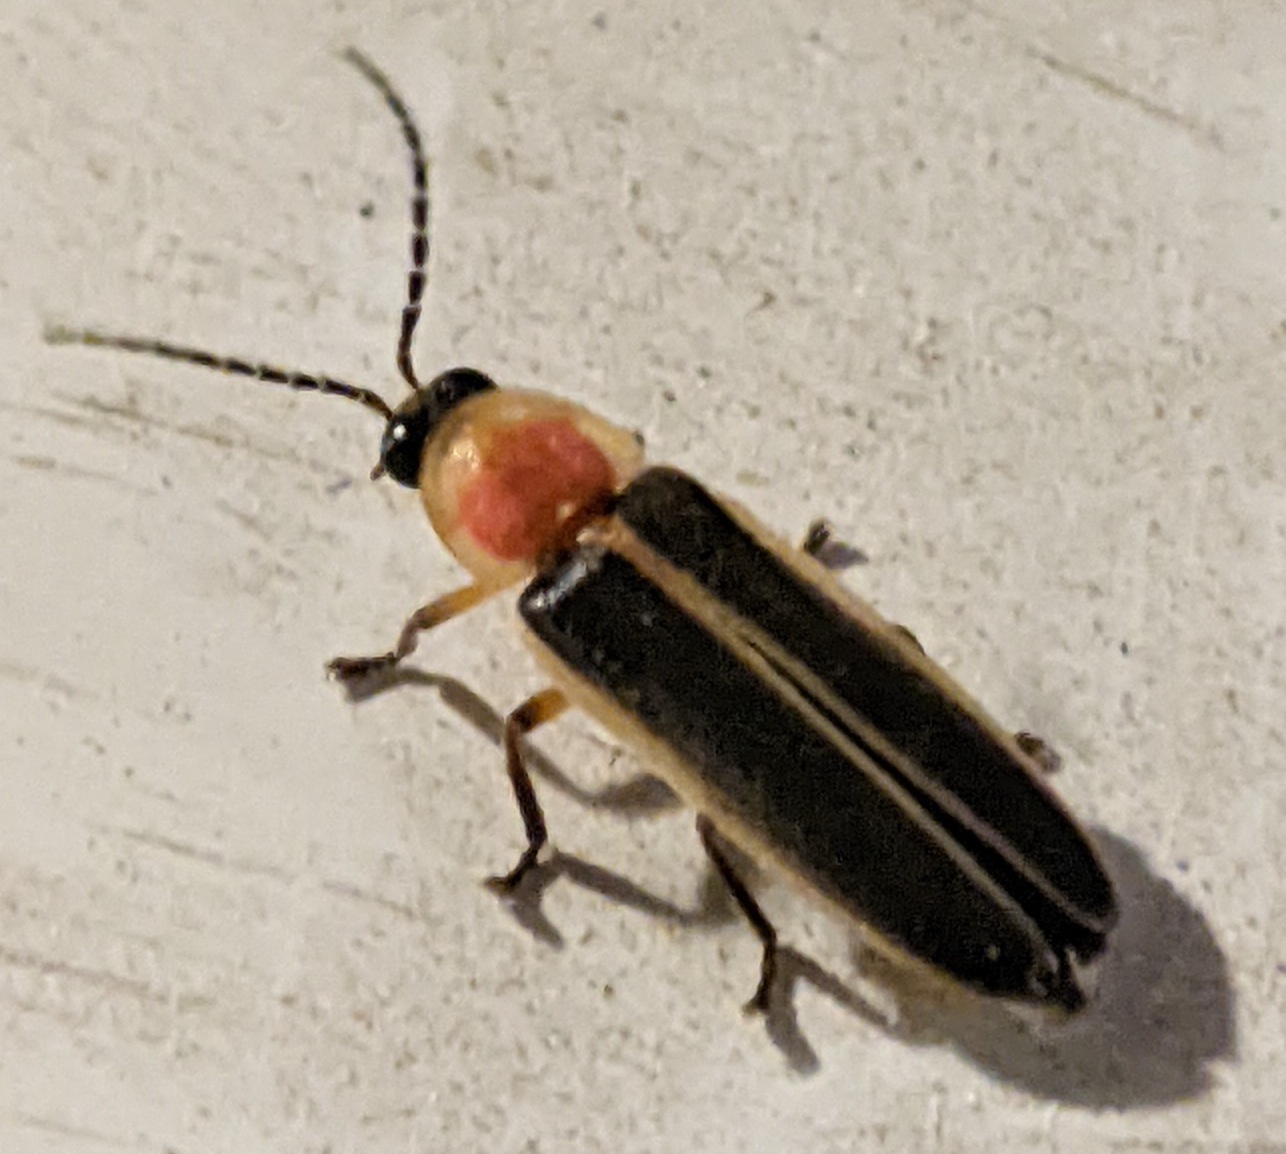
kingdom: Animalia
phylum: Arthropoda
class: Insecta
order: Coleoptera
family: Lampyridae
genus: Photinus
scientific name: Photinus pyralis
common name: Big dipper firefly
